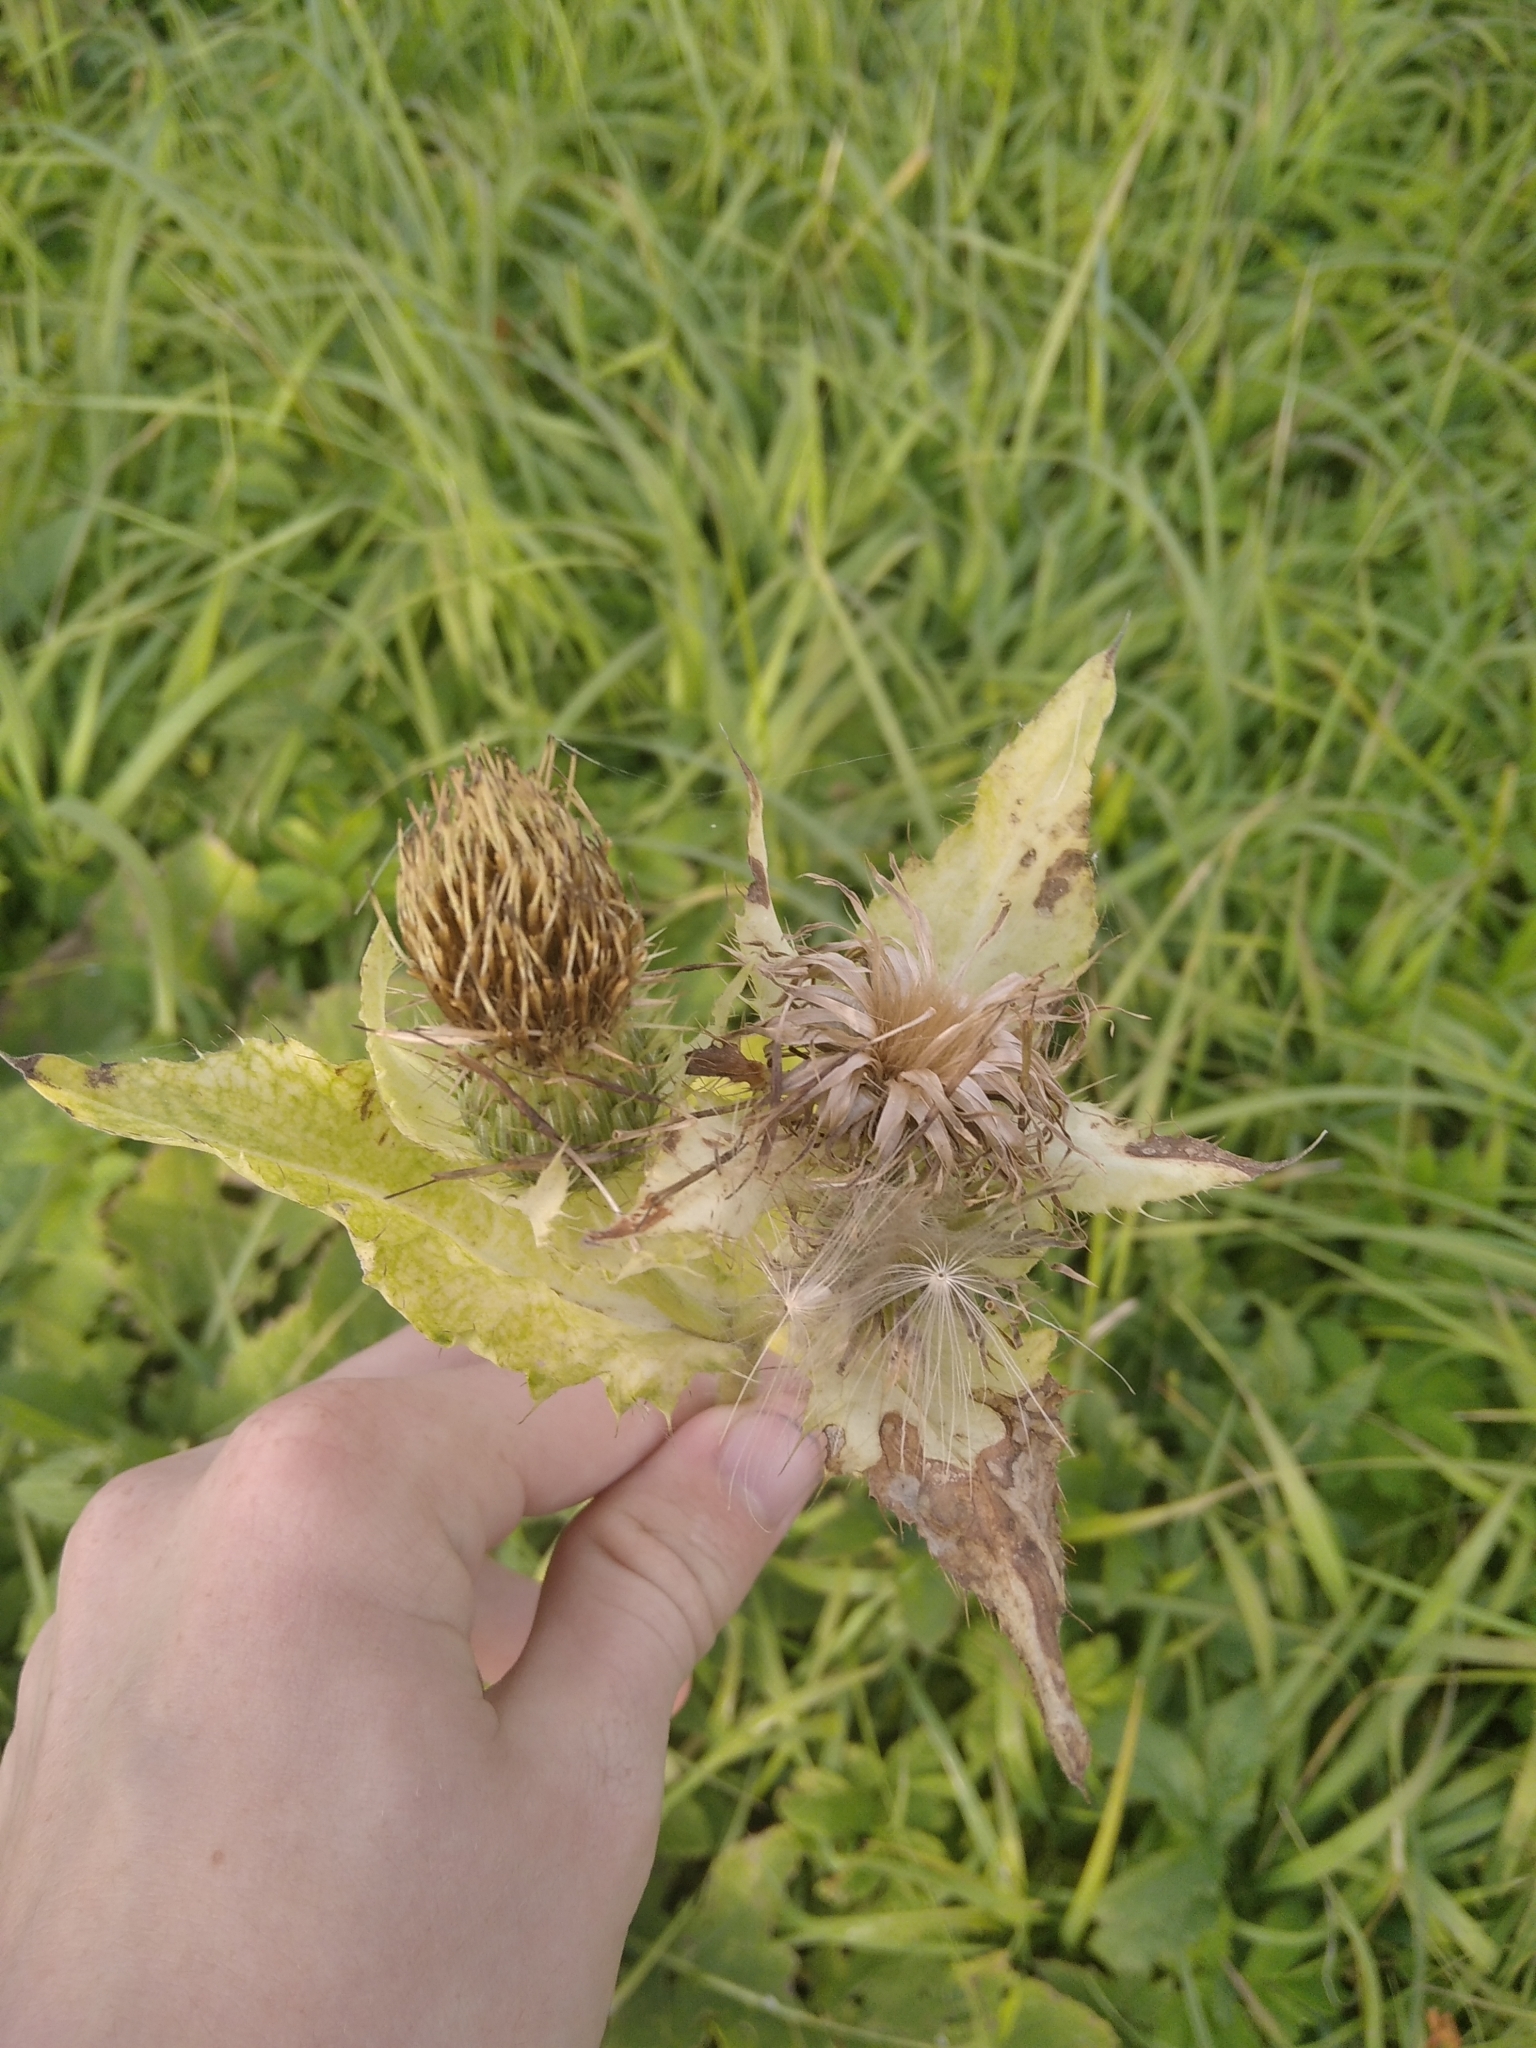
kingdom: Plantae
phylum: Tracheophyta
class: Magnoliopsida
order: Asterales
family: Asteraceae
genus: Cirsium
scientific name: Cirsium oleraceum
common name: Cabbage thistle
